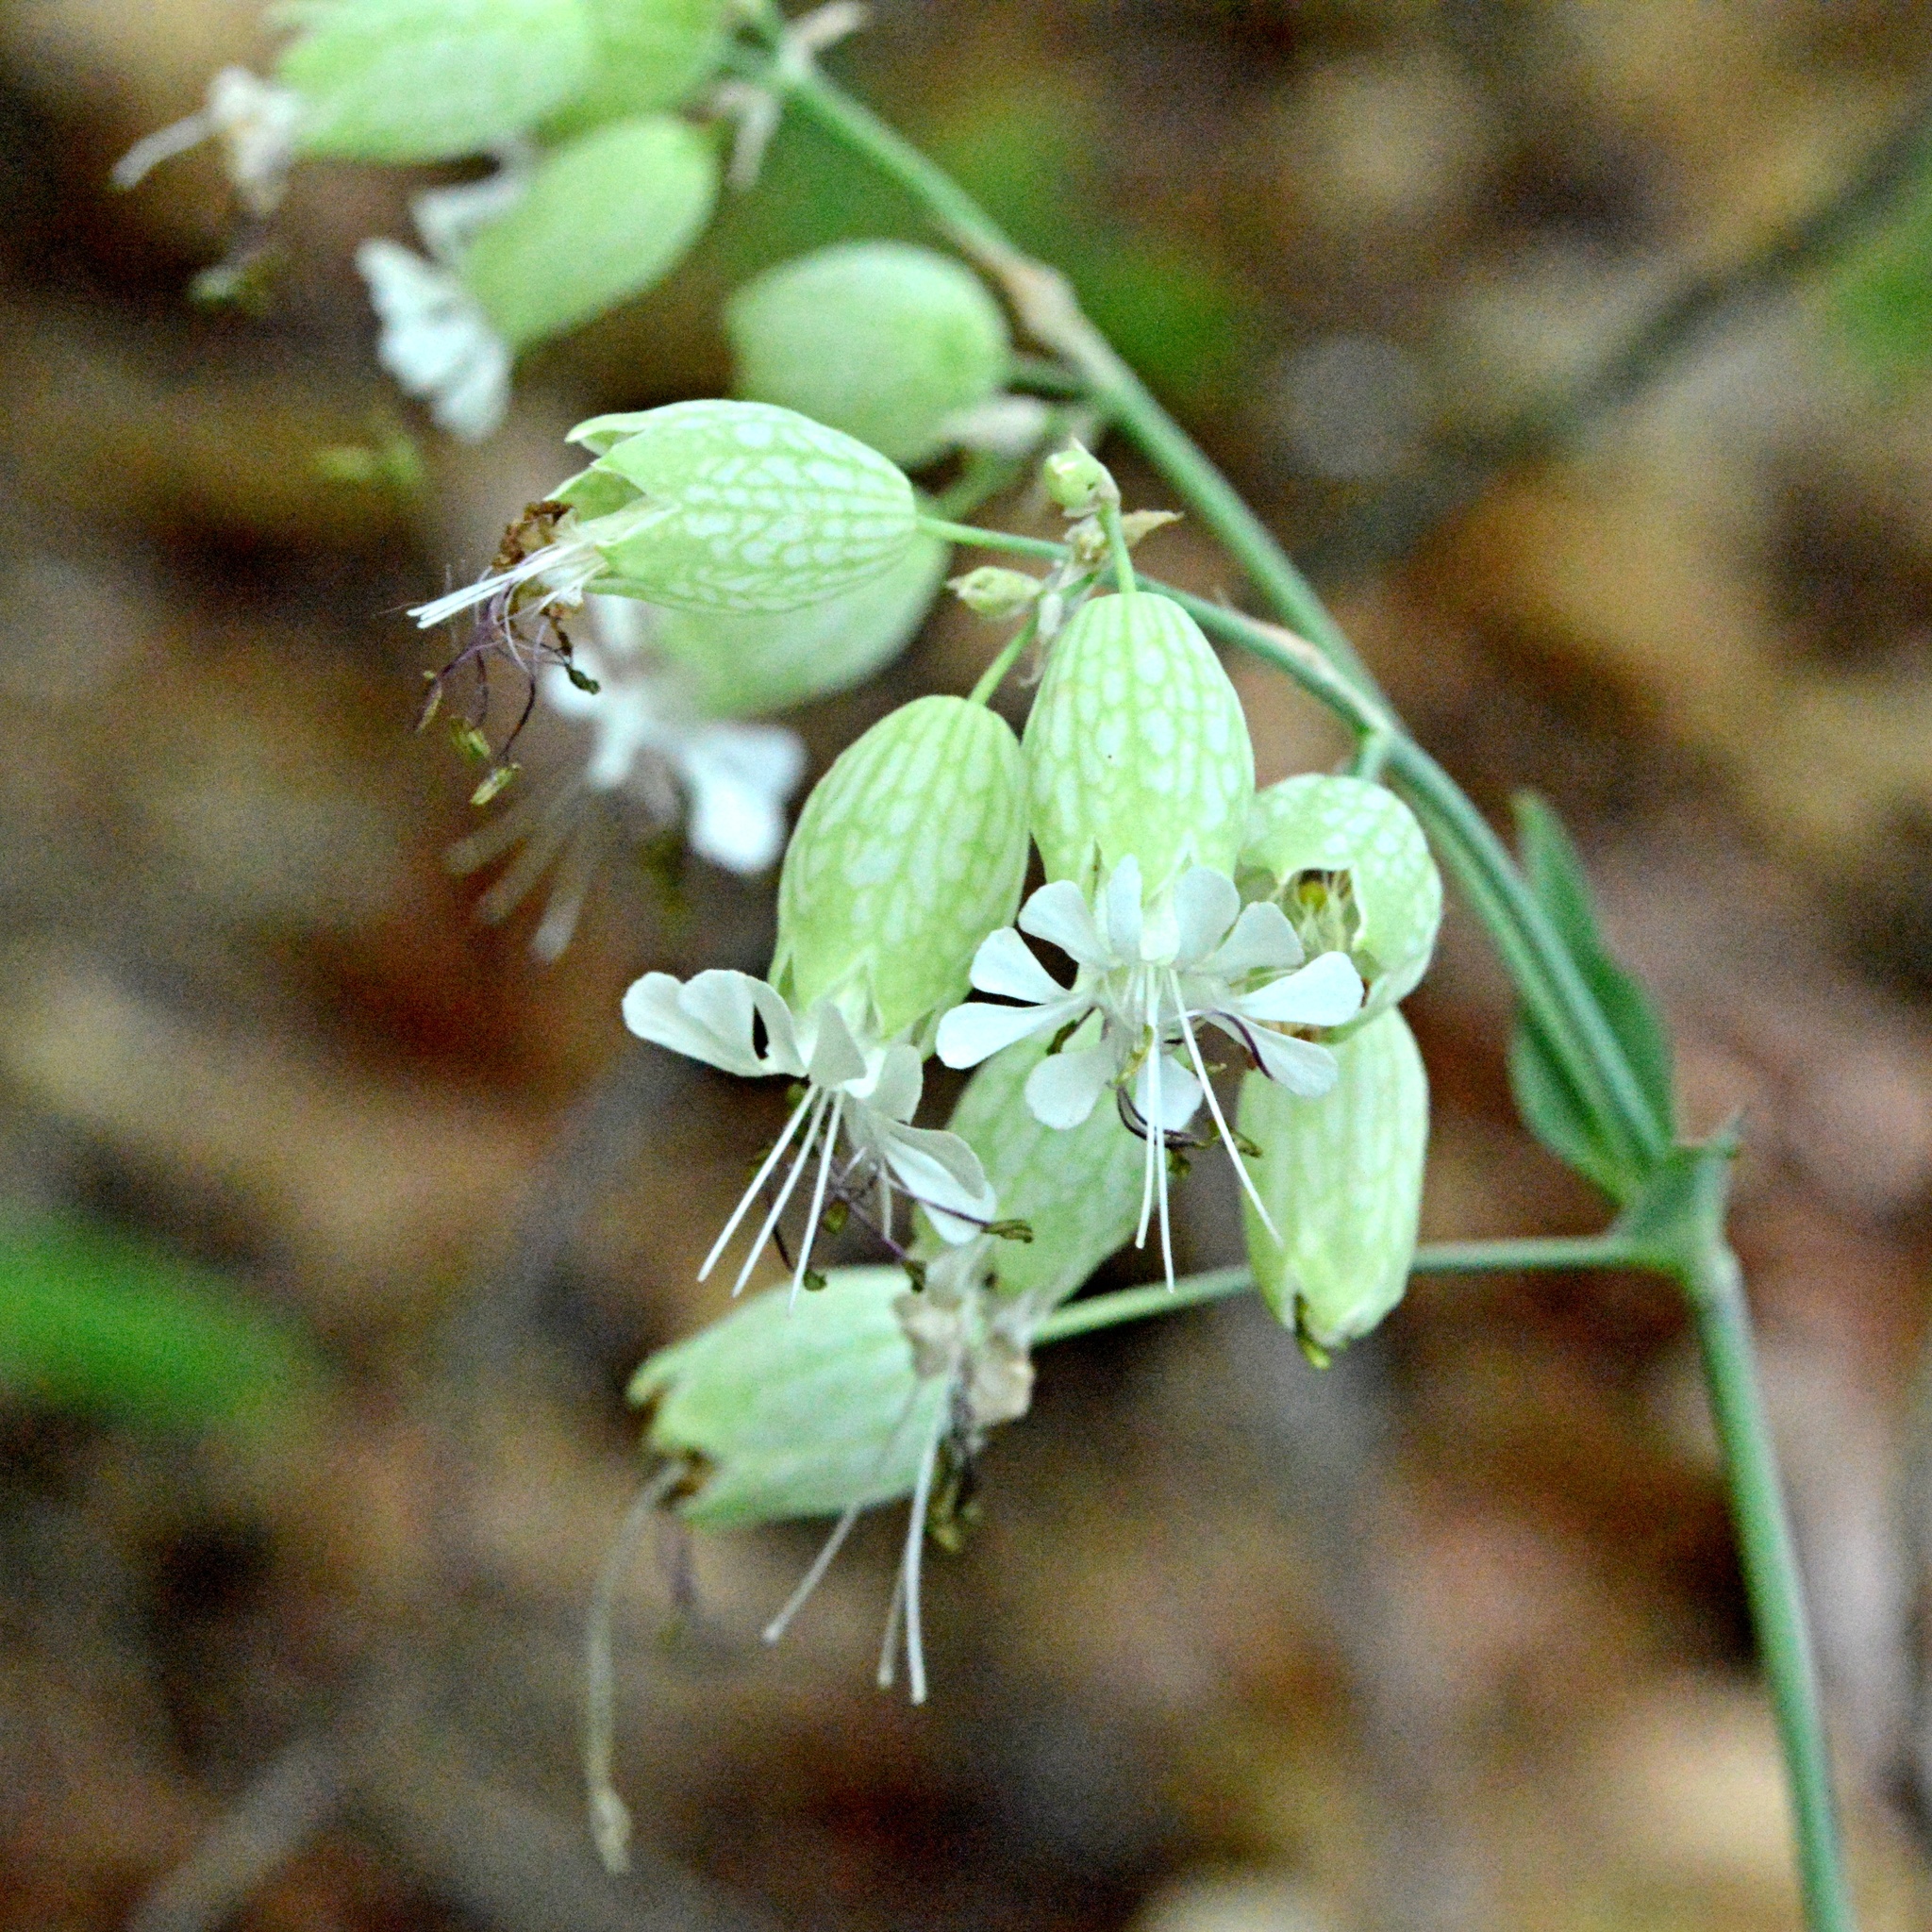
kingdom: Plantae
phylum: Tracheophyta
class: Magnoliopsida
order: Caryophyllales
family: Caryophyllaceae
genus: Silene
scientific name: Silene vulgaris
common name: Bladder campion
